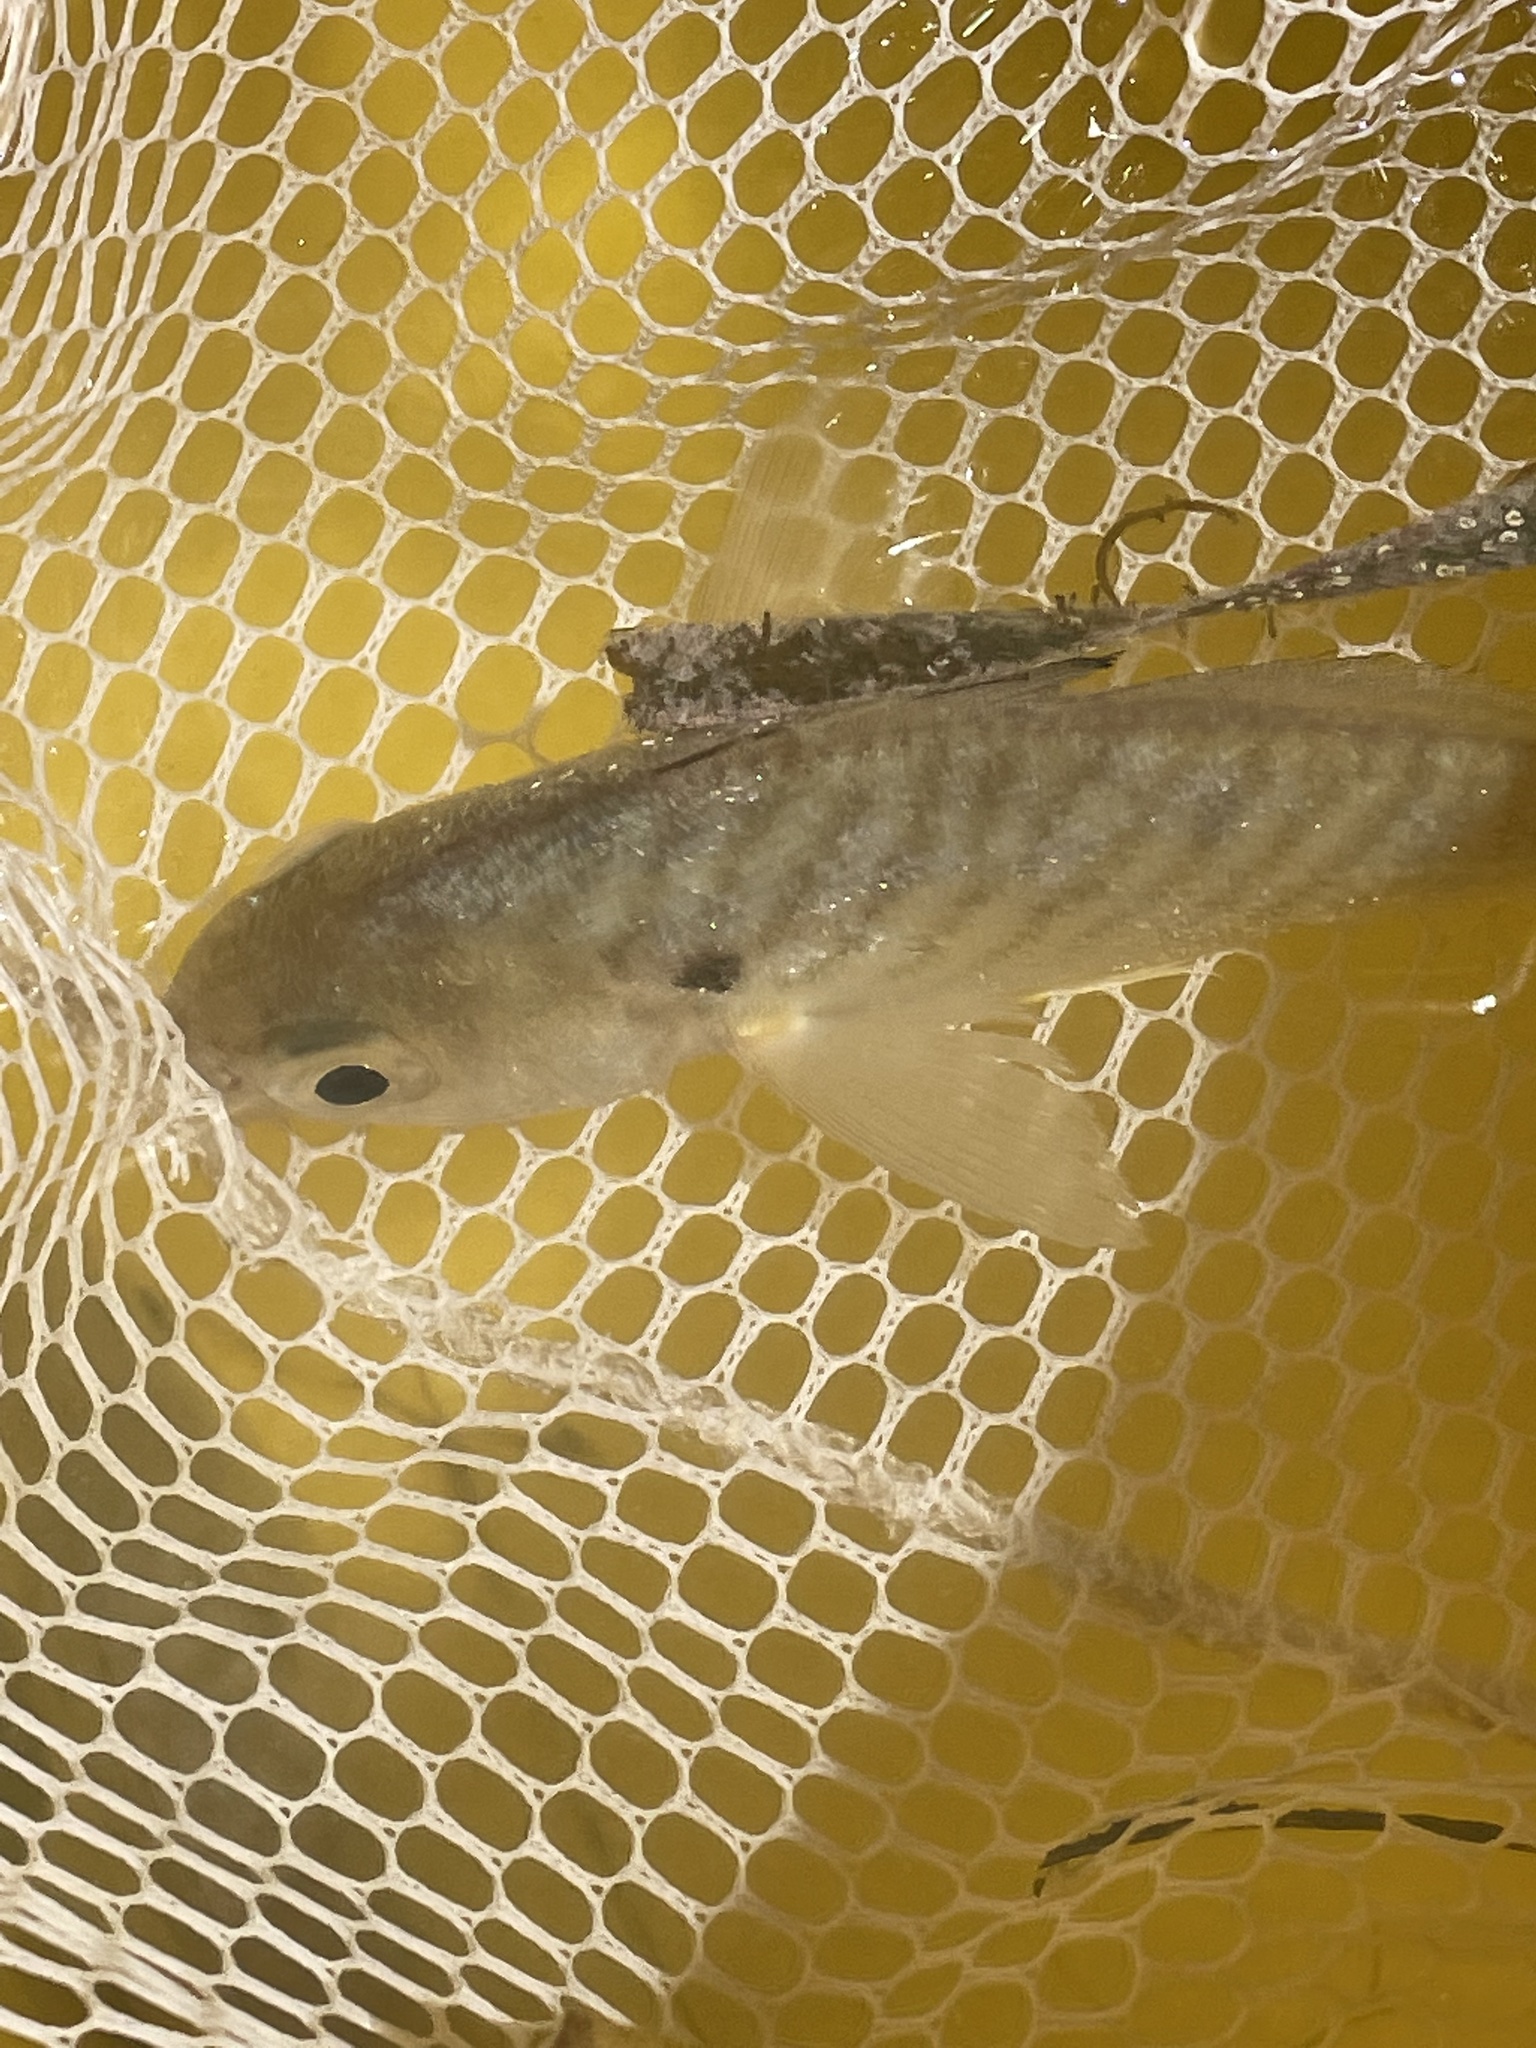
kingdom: Animalia
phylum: Chordata
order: Perciformes
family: Sciaenidae
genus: Leiostomus
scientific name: Leiostomus xanthurus
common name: Spot
